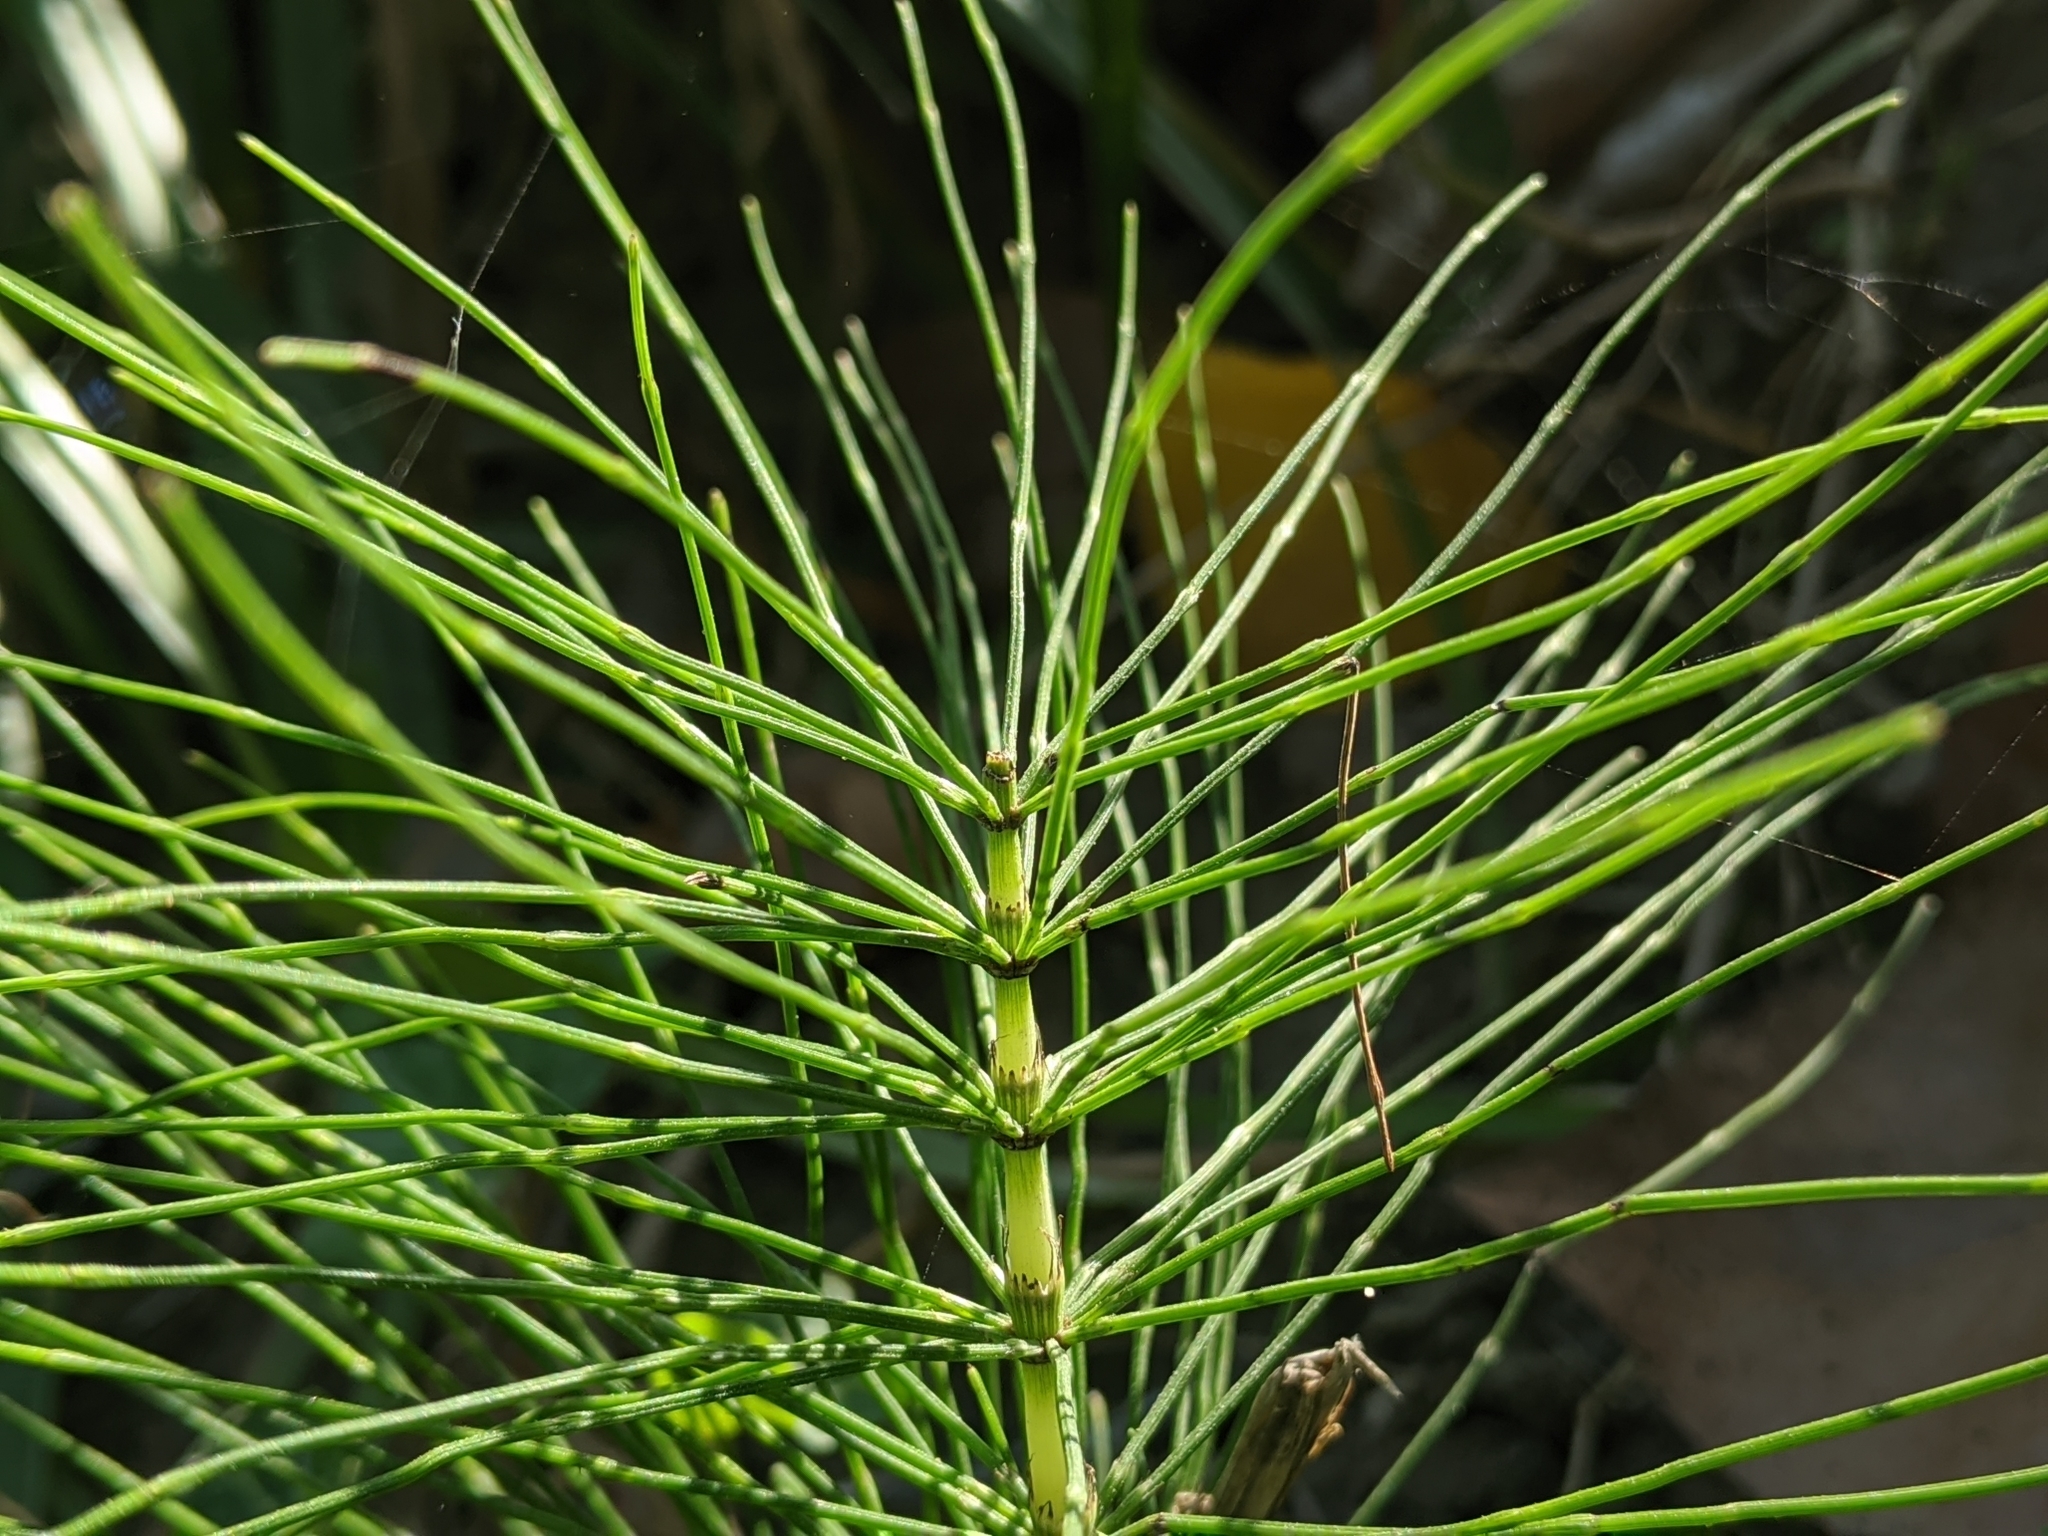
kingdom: Plantae
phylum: Tracheophyta
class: Polypodiopsida
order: Equisetales
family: Equisetaceae
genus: Equisetum
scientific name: Equisetum telmateia
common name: Great horsetail
